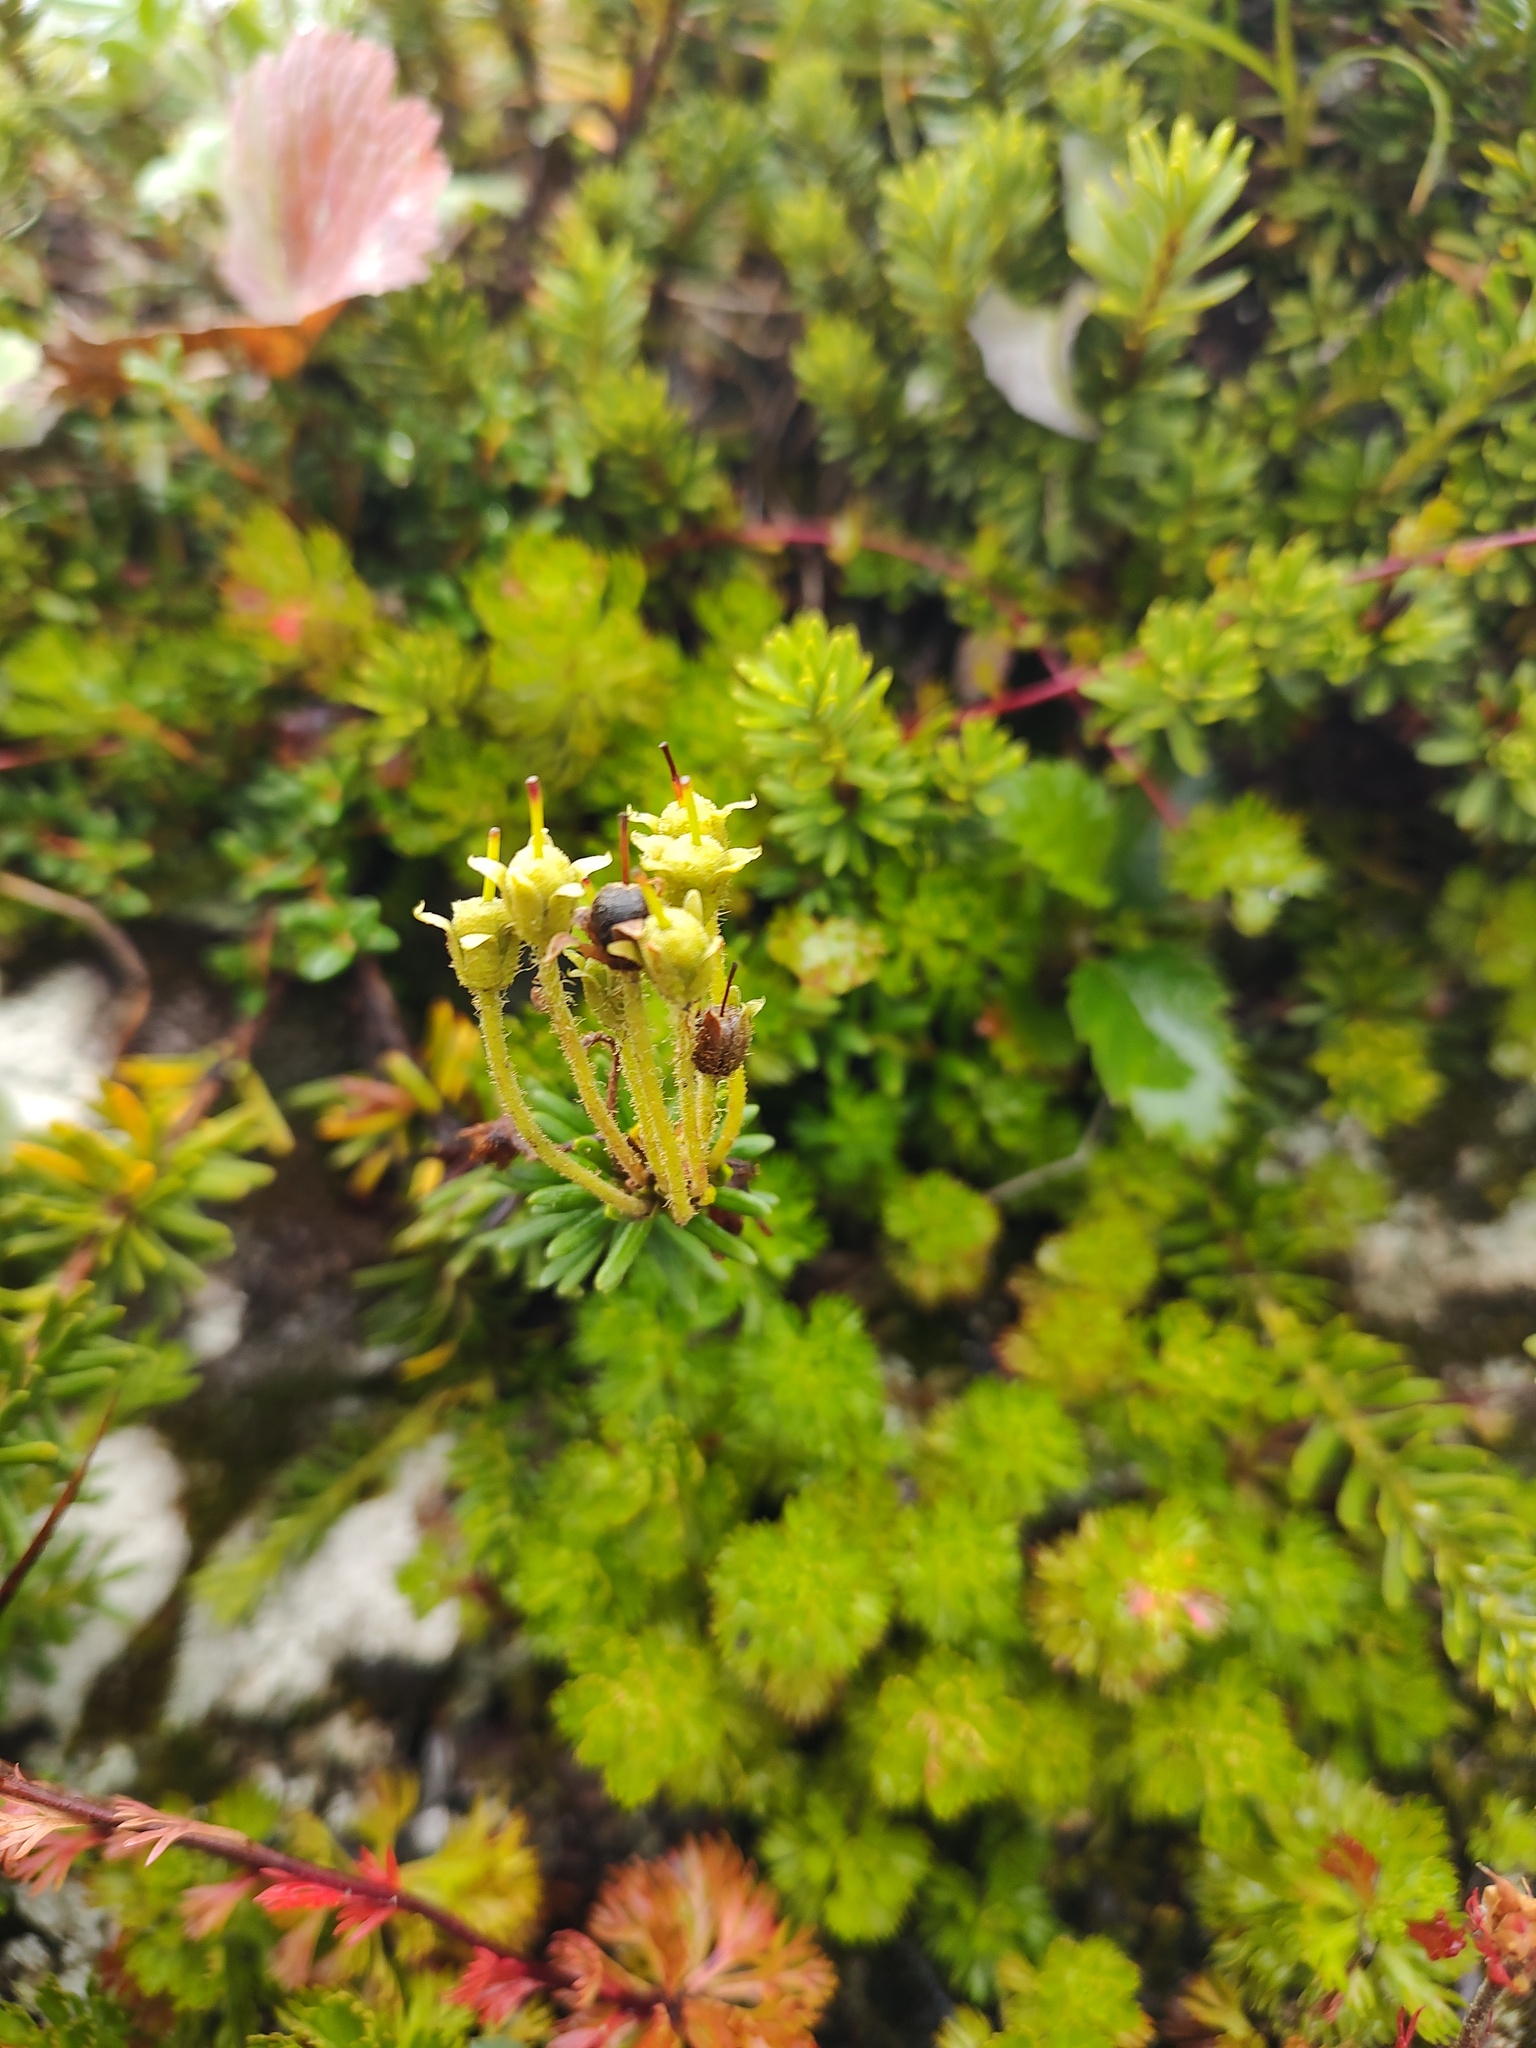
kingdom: Plantae
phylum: Tracheophyta
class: Magnoliopsida
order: Ericales
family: Ericaceae
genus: Phyllodoce
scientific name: Phyllodoce glanduliflora
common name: Cream mountain heather
